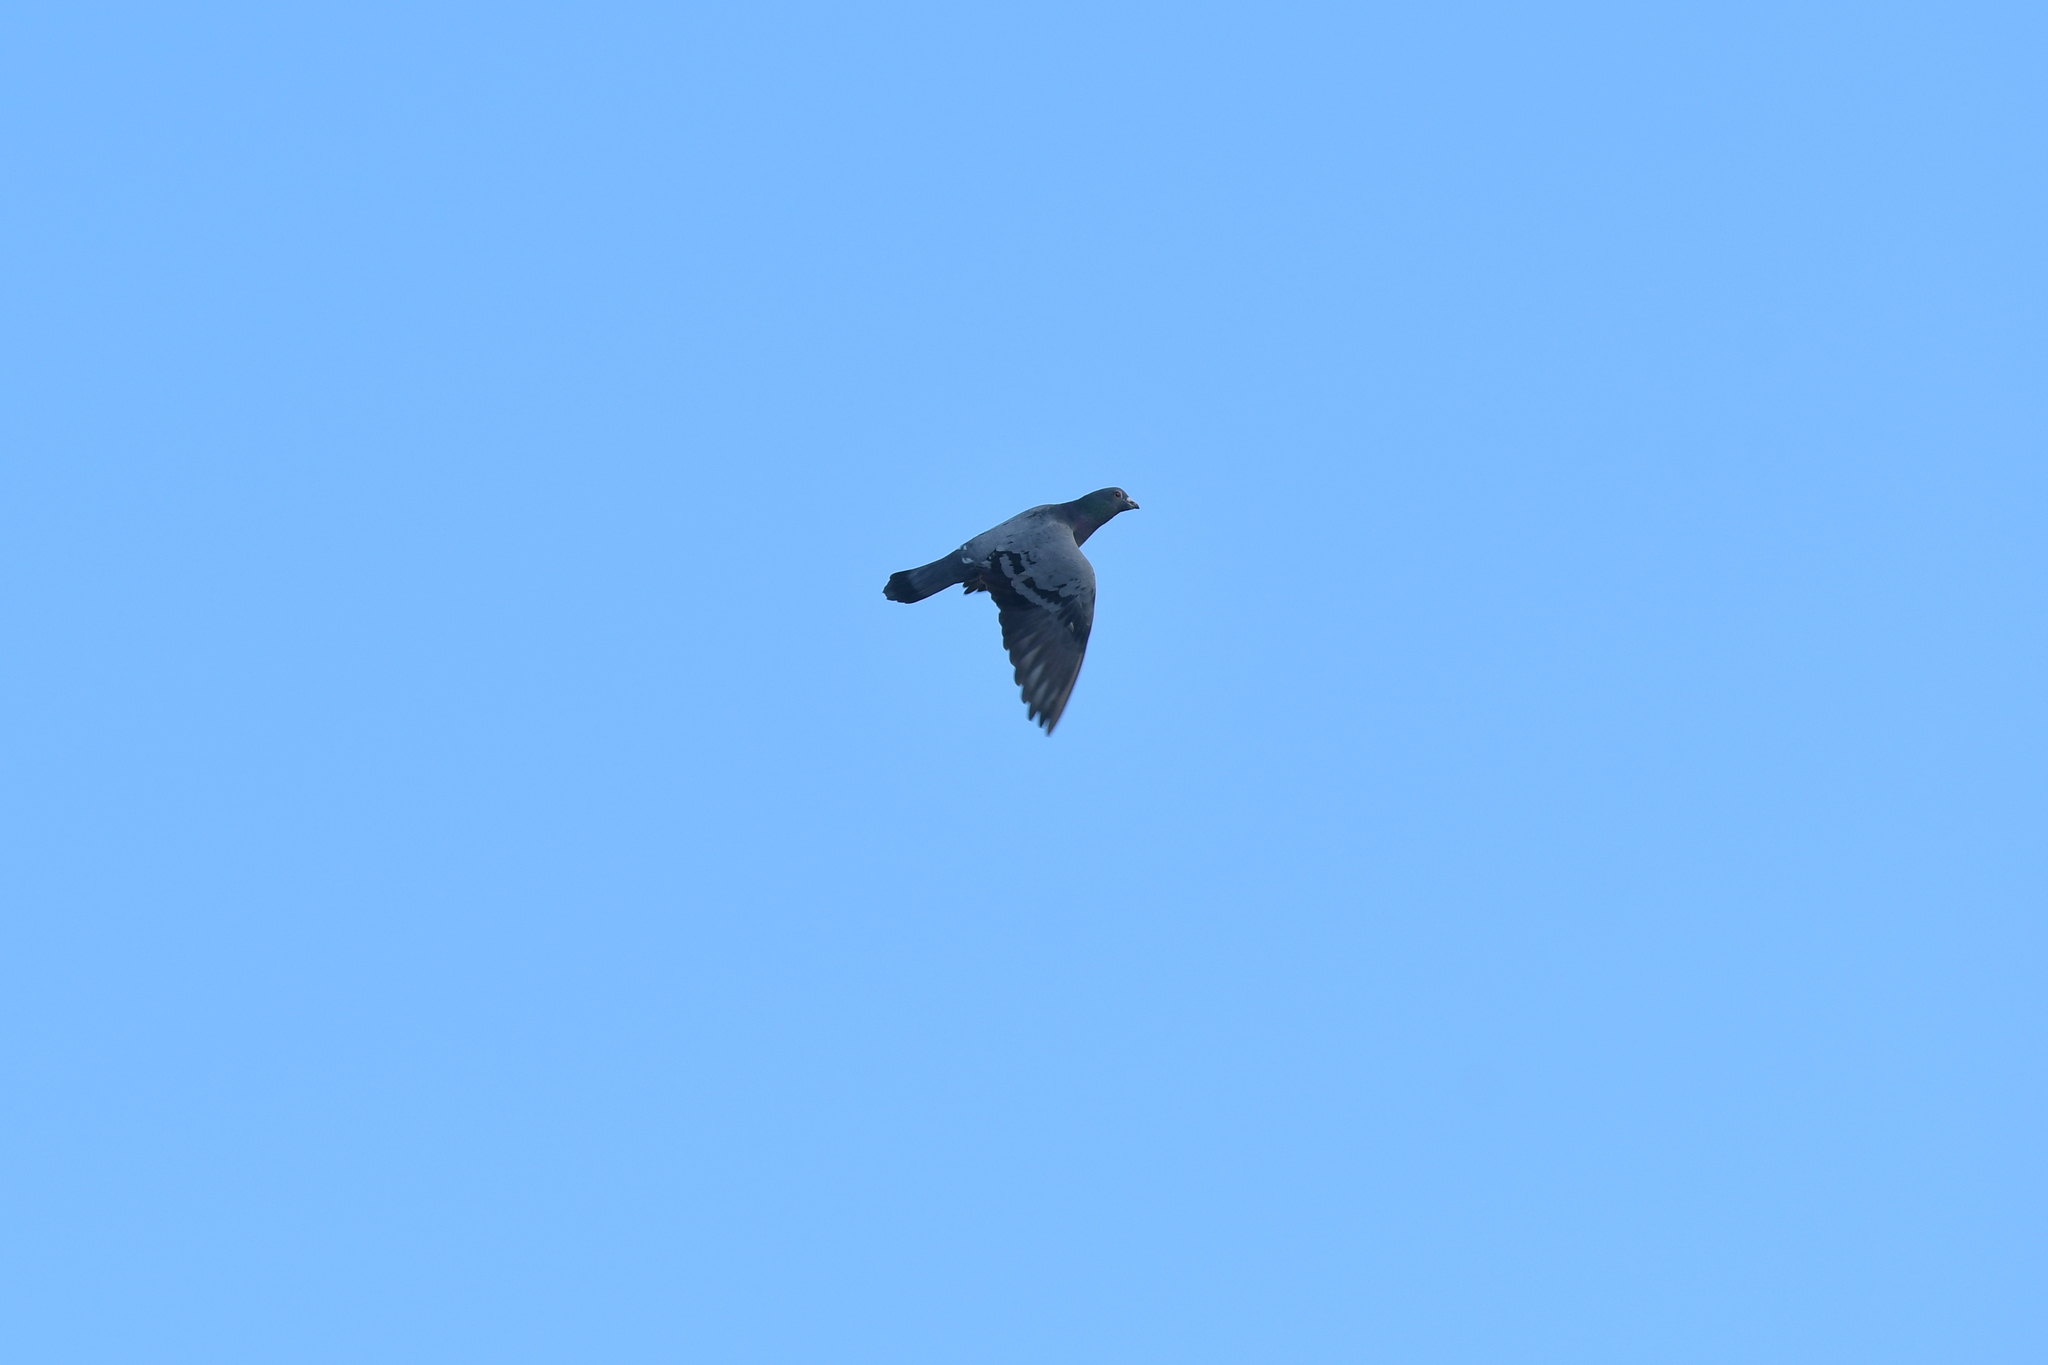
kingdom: Animalia
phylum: Chordata
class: Aves
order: Columbiformes
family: Columbidae
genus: Columba
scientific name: Columba livia
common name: Rock pigeon
